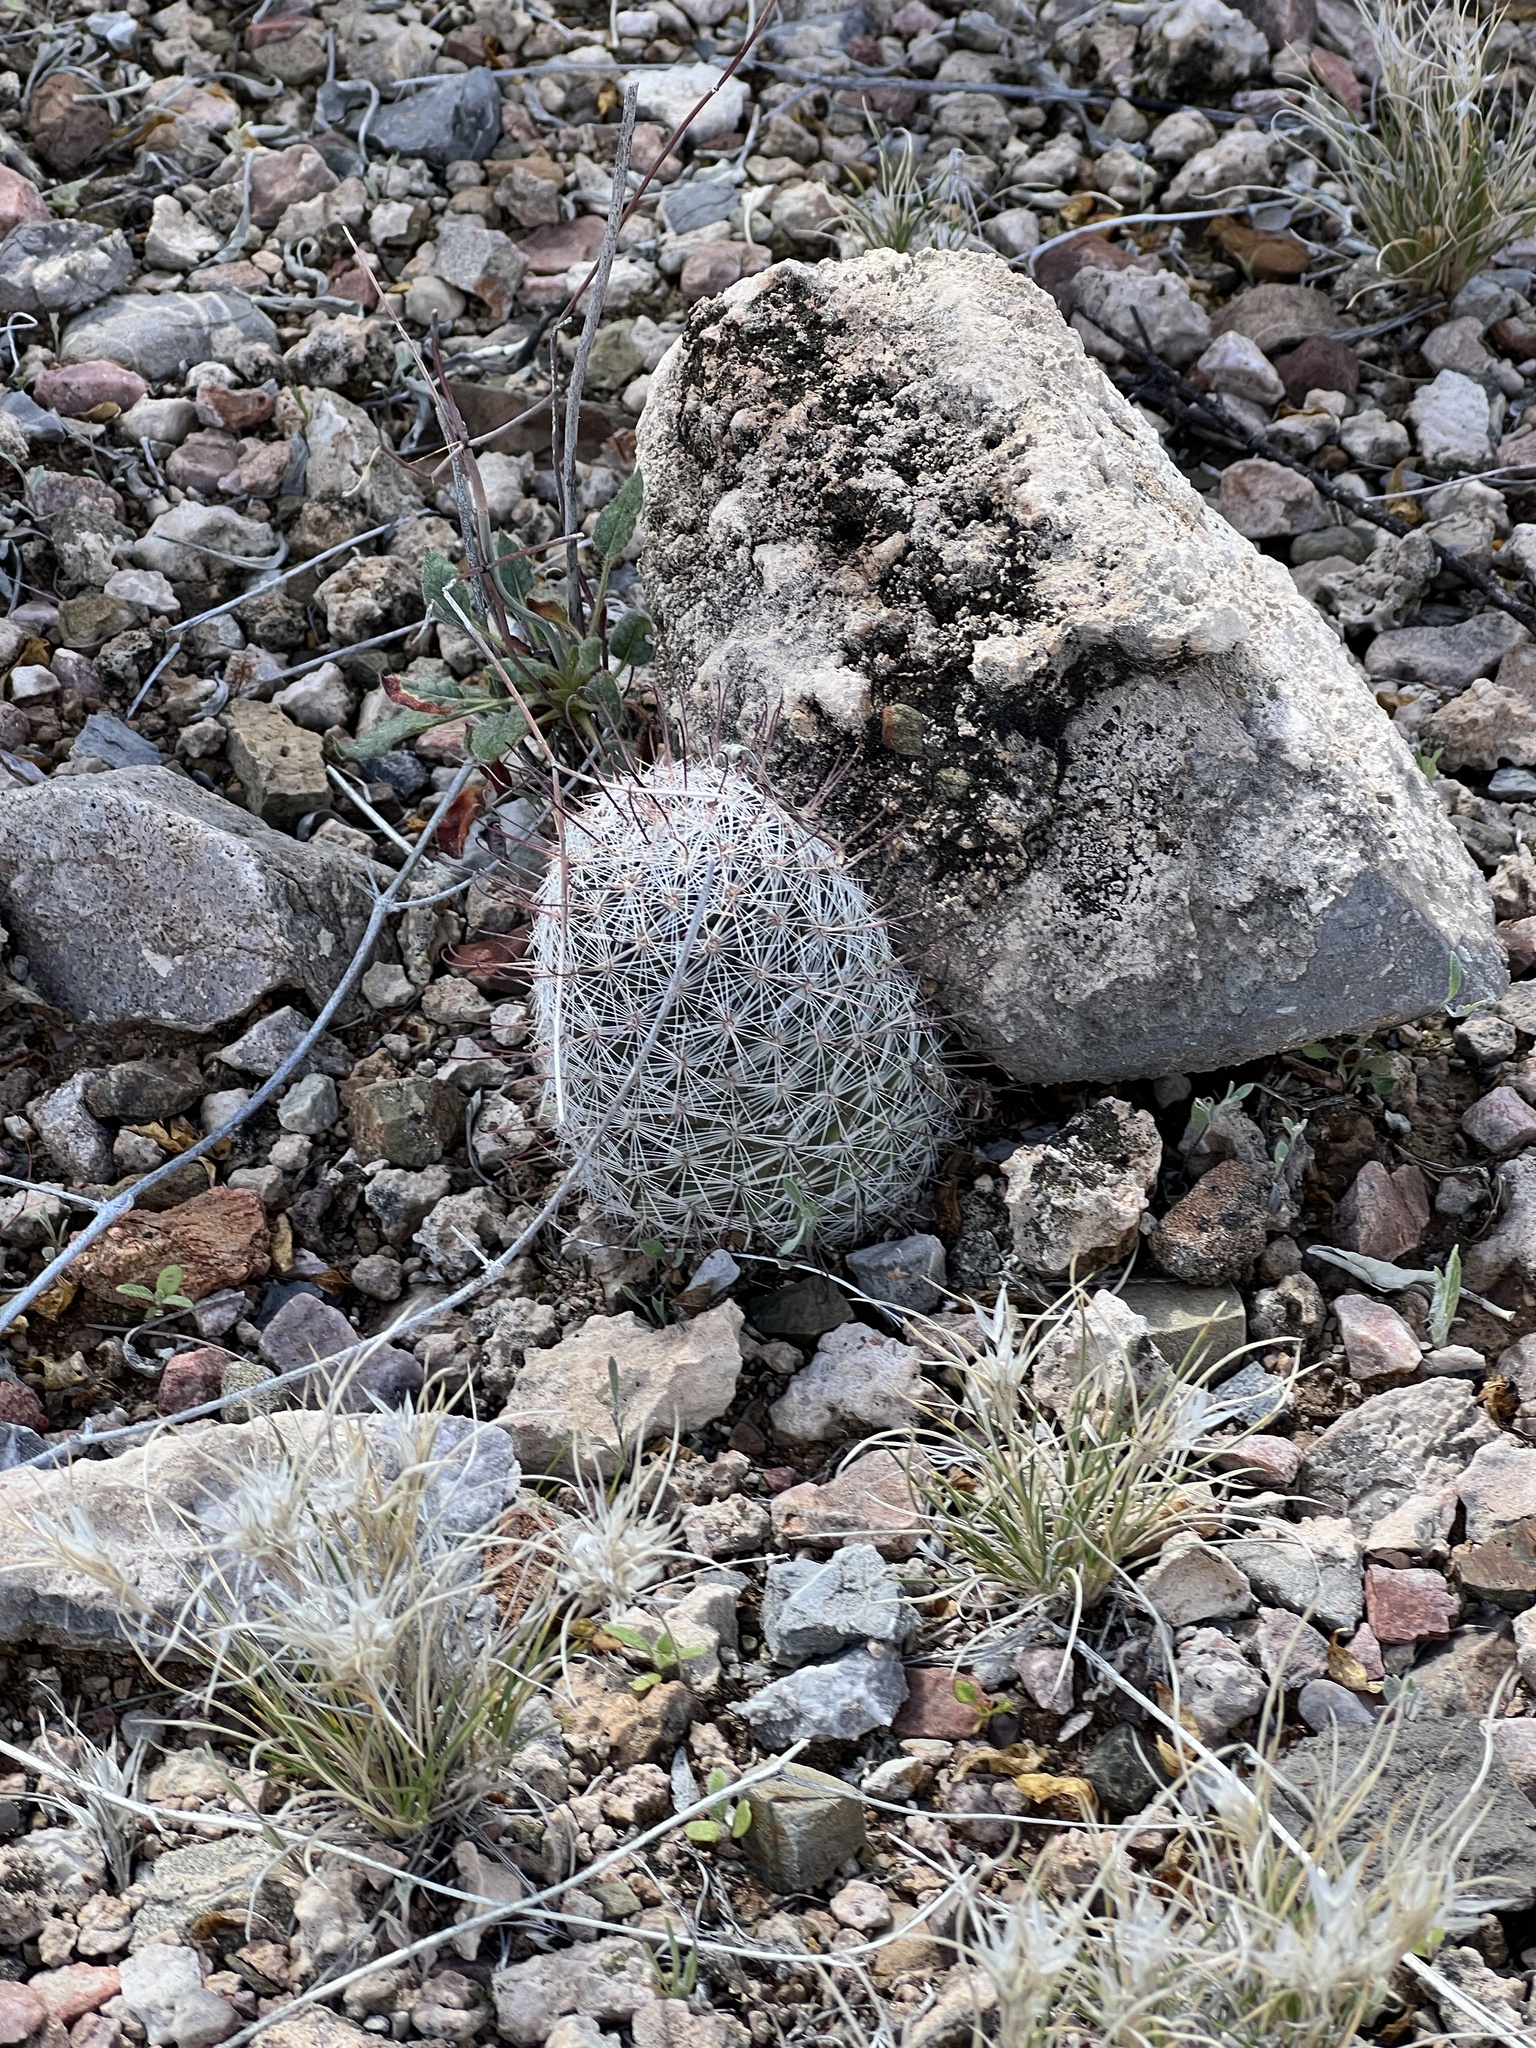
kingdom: Plantae
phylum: Tracheophyta
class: Magnoliopsida
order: Caryophyllales
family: Cactaceae
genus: Cochemiea
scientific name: Cochemiea grahamii
